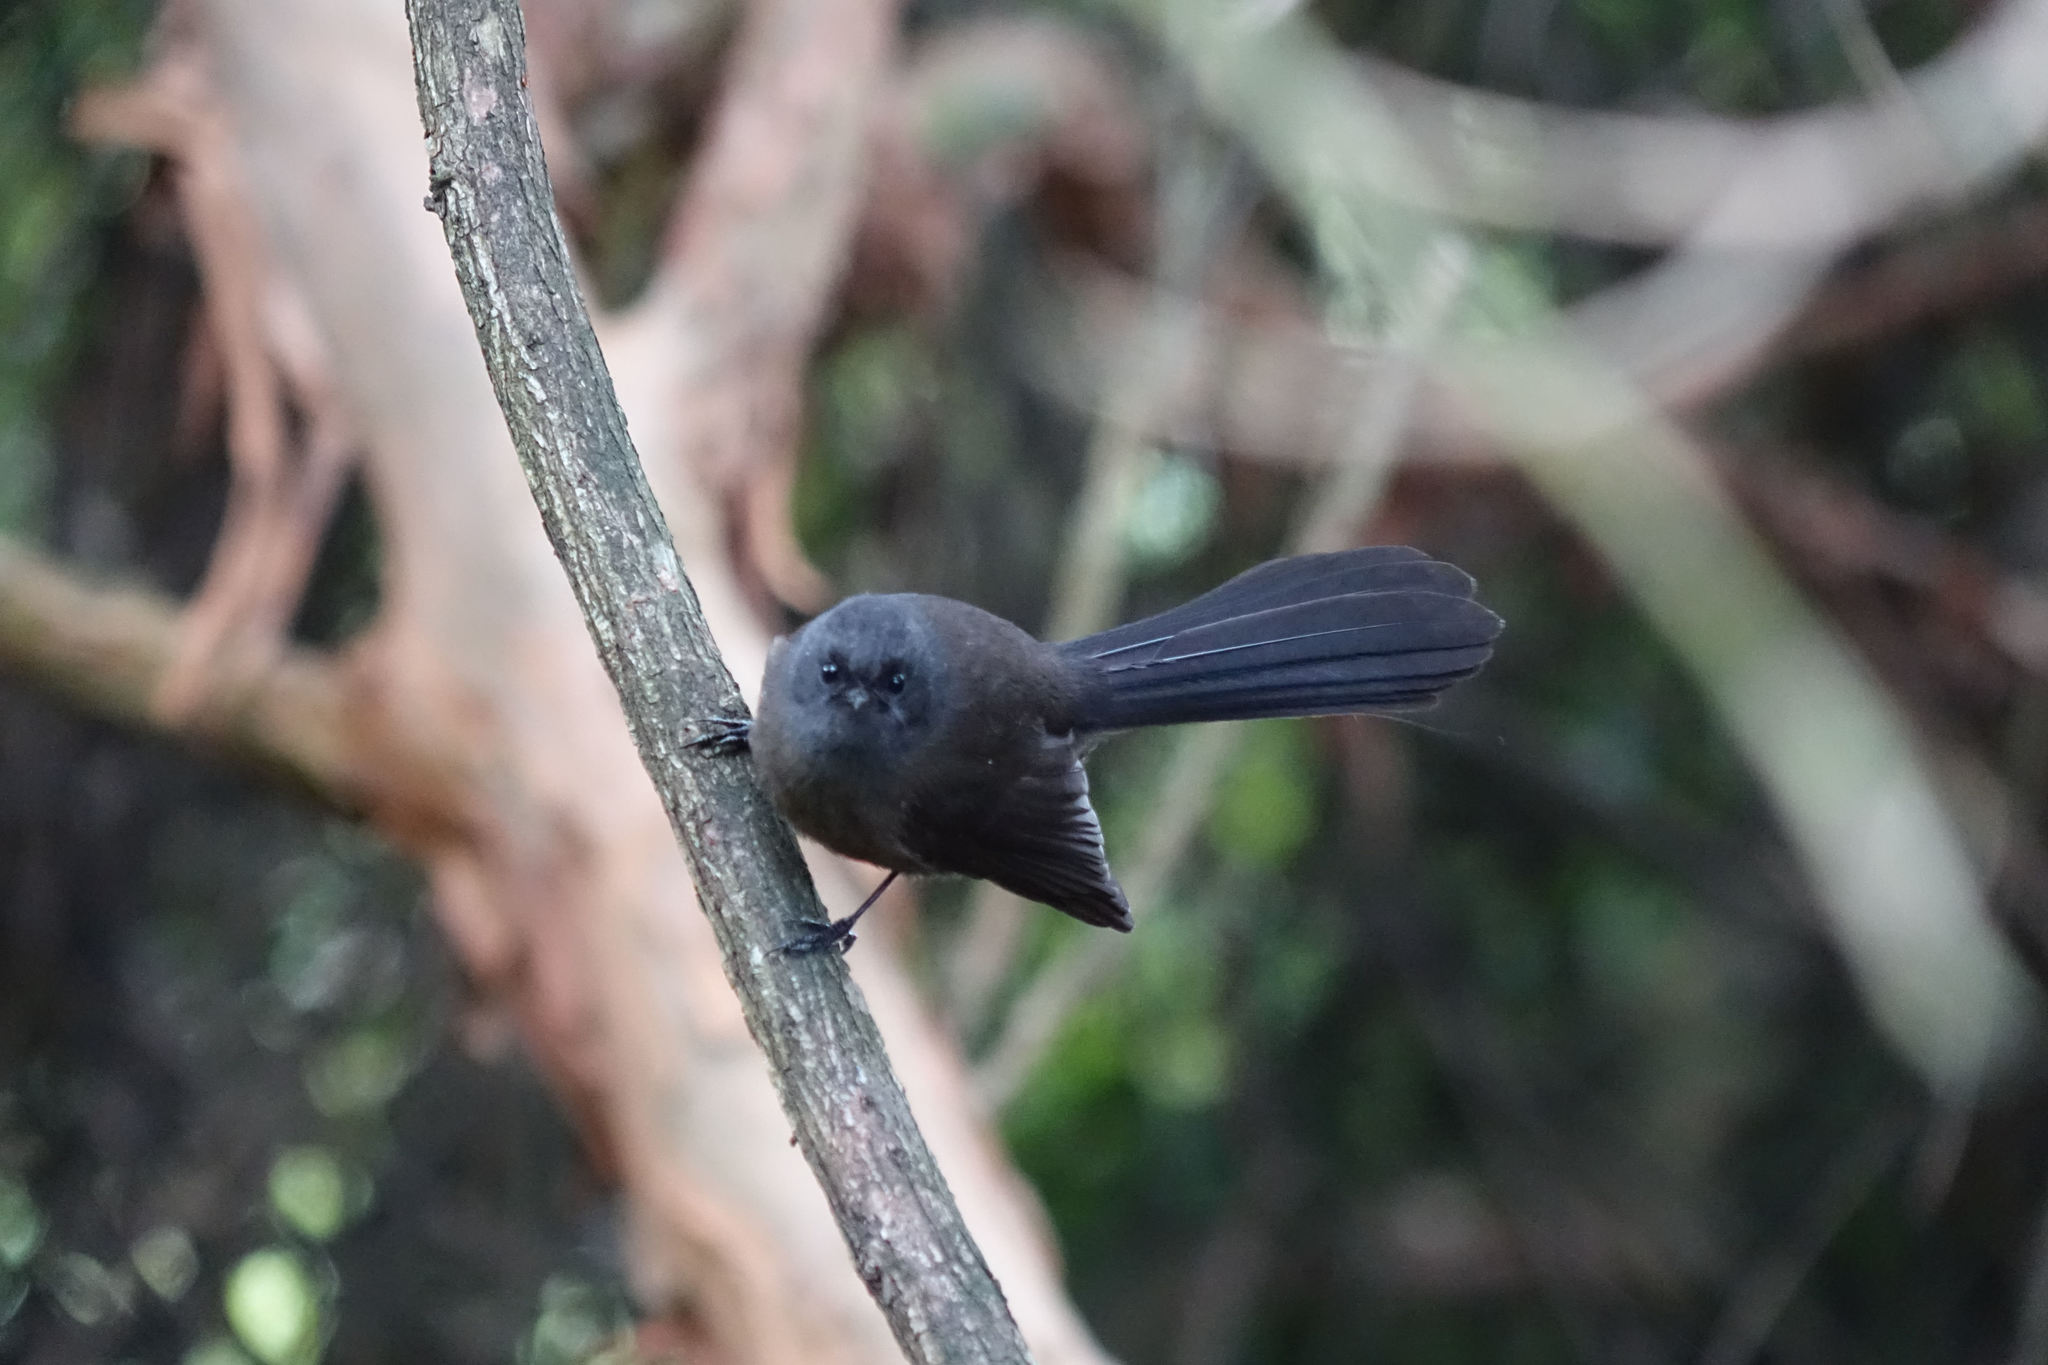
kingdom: Animalia
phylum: Chordata
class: Aves
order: Passeriformes
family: Rhipiduridae
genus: Rhipidura
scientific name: Rhipidura fuliginosa
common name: New zealand fantail
